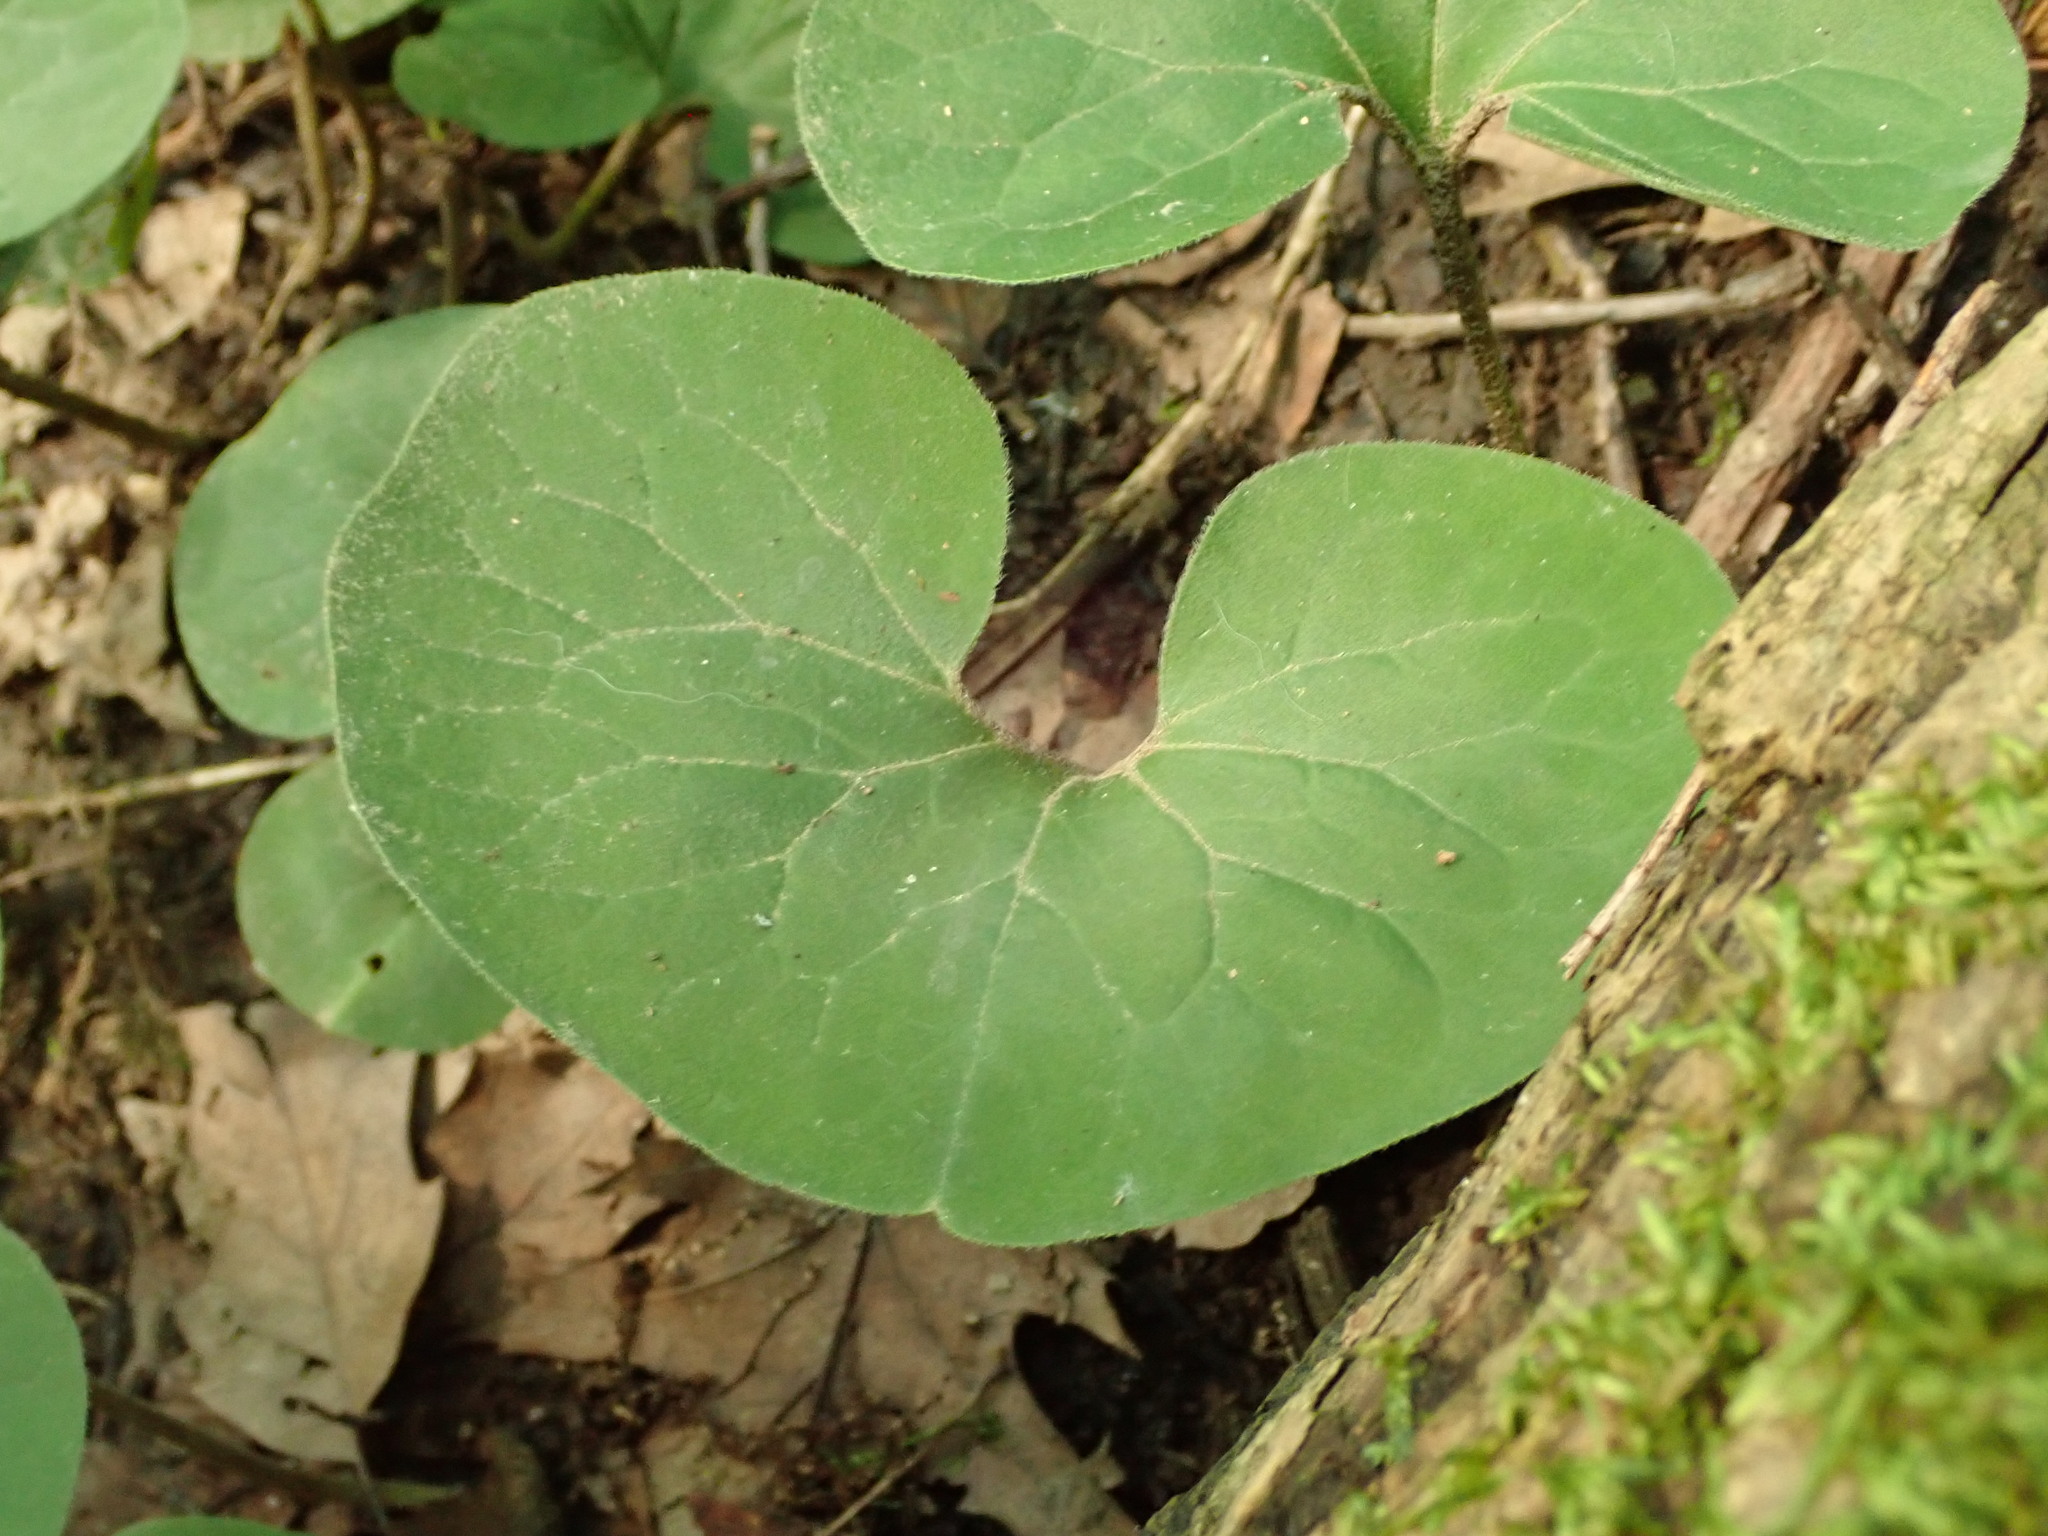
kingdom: Plantae
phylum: Tracheophyta
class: Magnoliopsida
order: Piperales
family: Aristolochiaceae
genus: Asarum
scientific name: Asarum canadense
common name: Wild ginger
